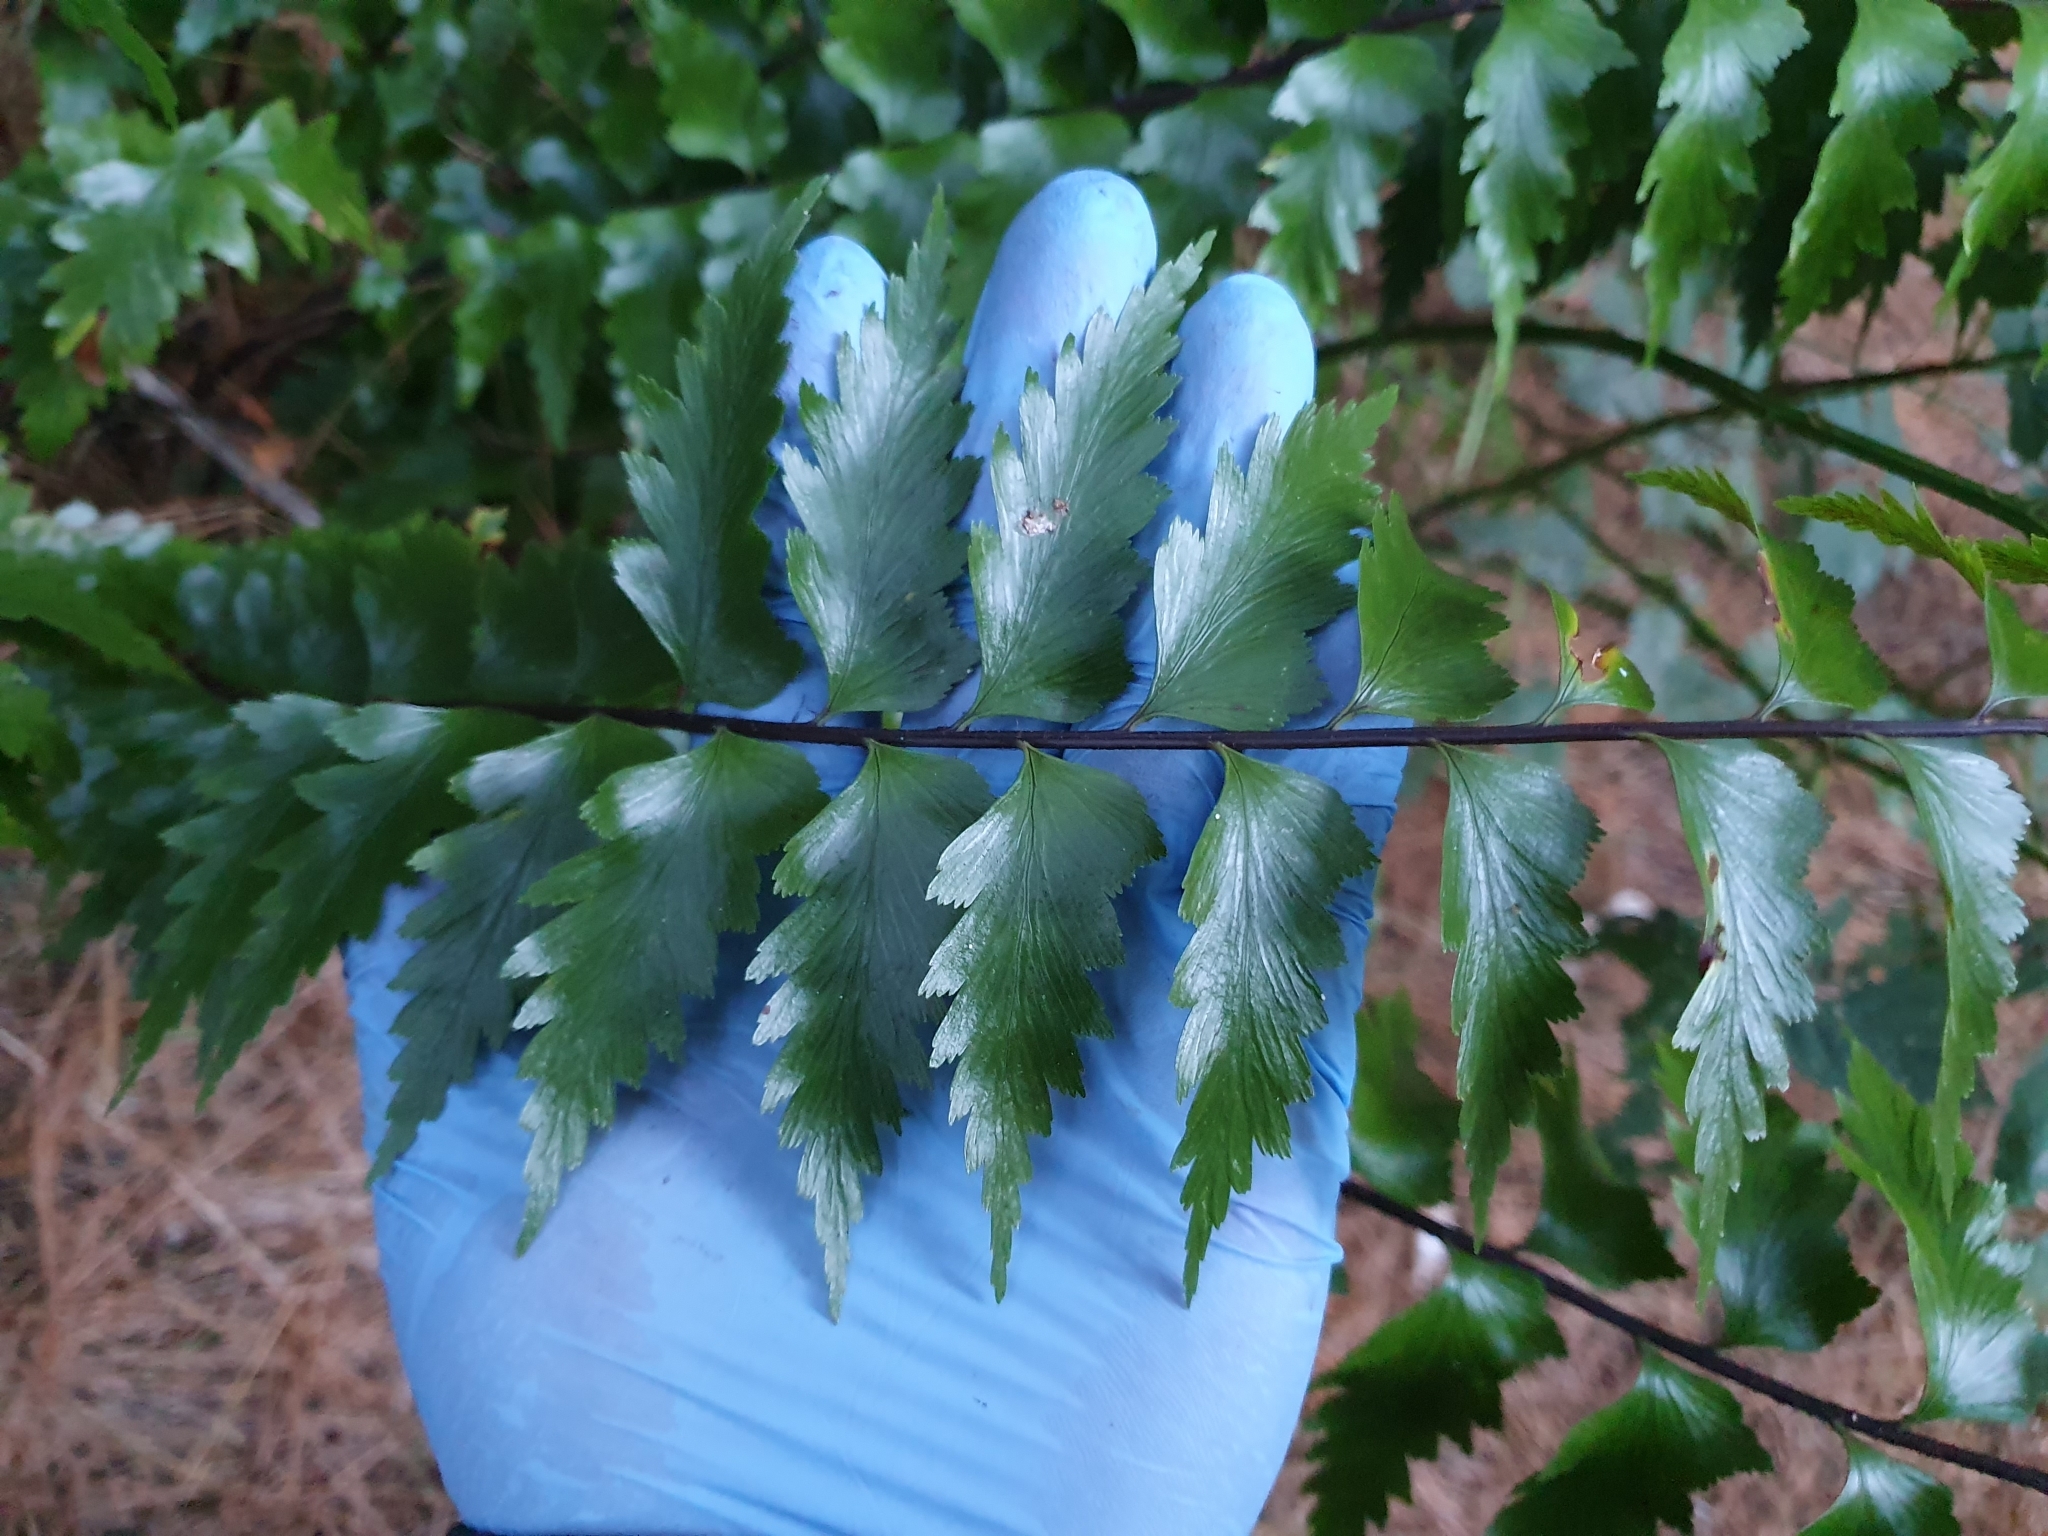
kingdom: Plantae
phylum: Tracheophyta
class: Polypodiopsida
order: Polypodiales
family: Aspleniaceae
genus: Asplenium
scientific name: Asplenium polyodon
